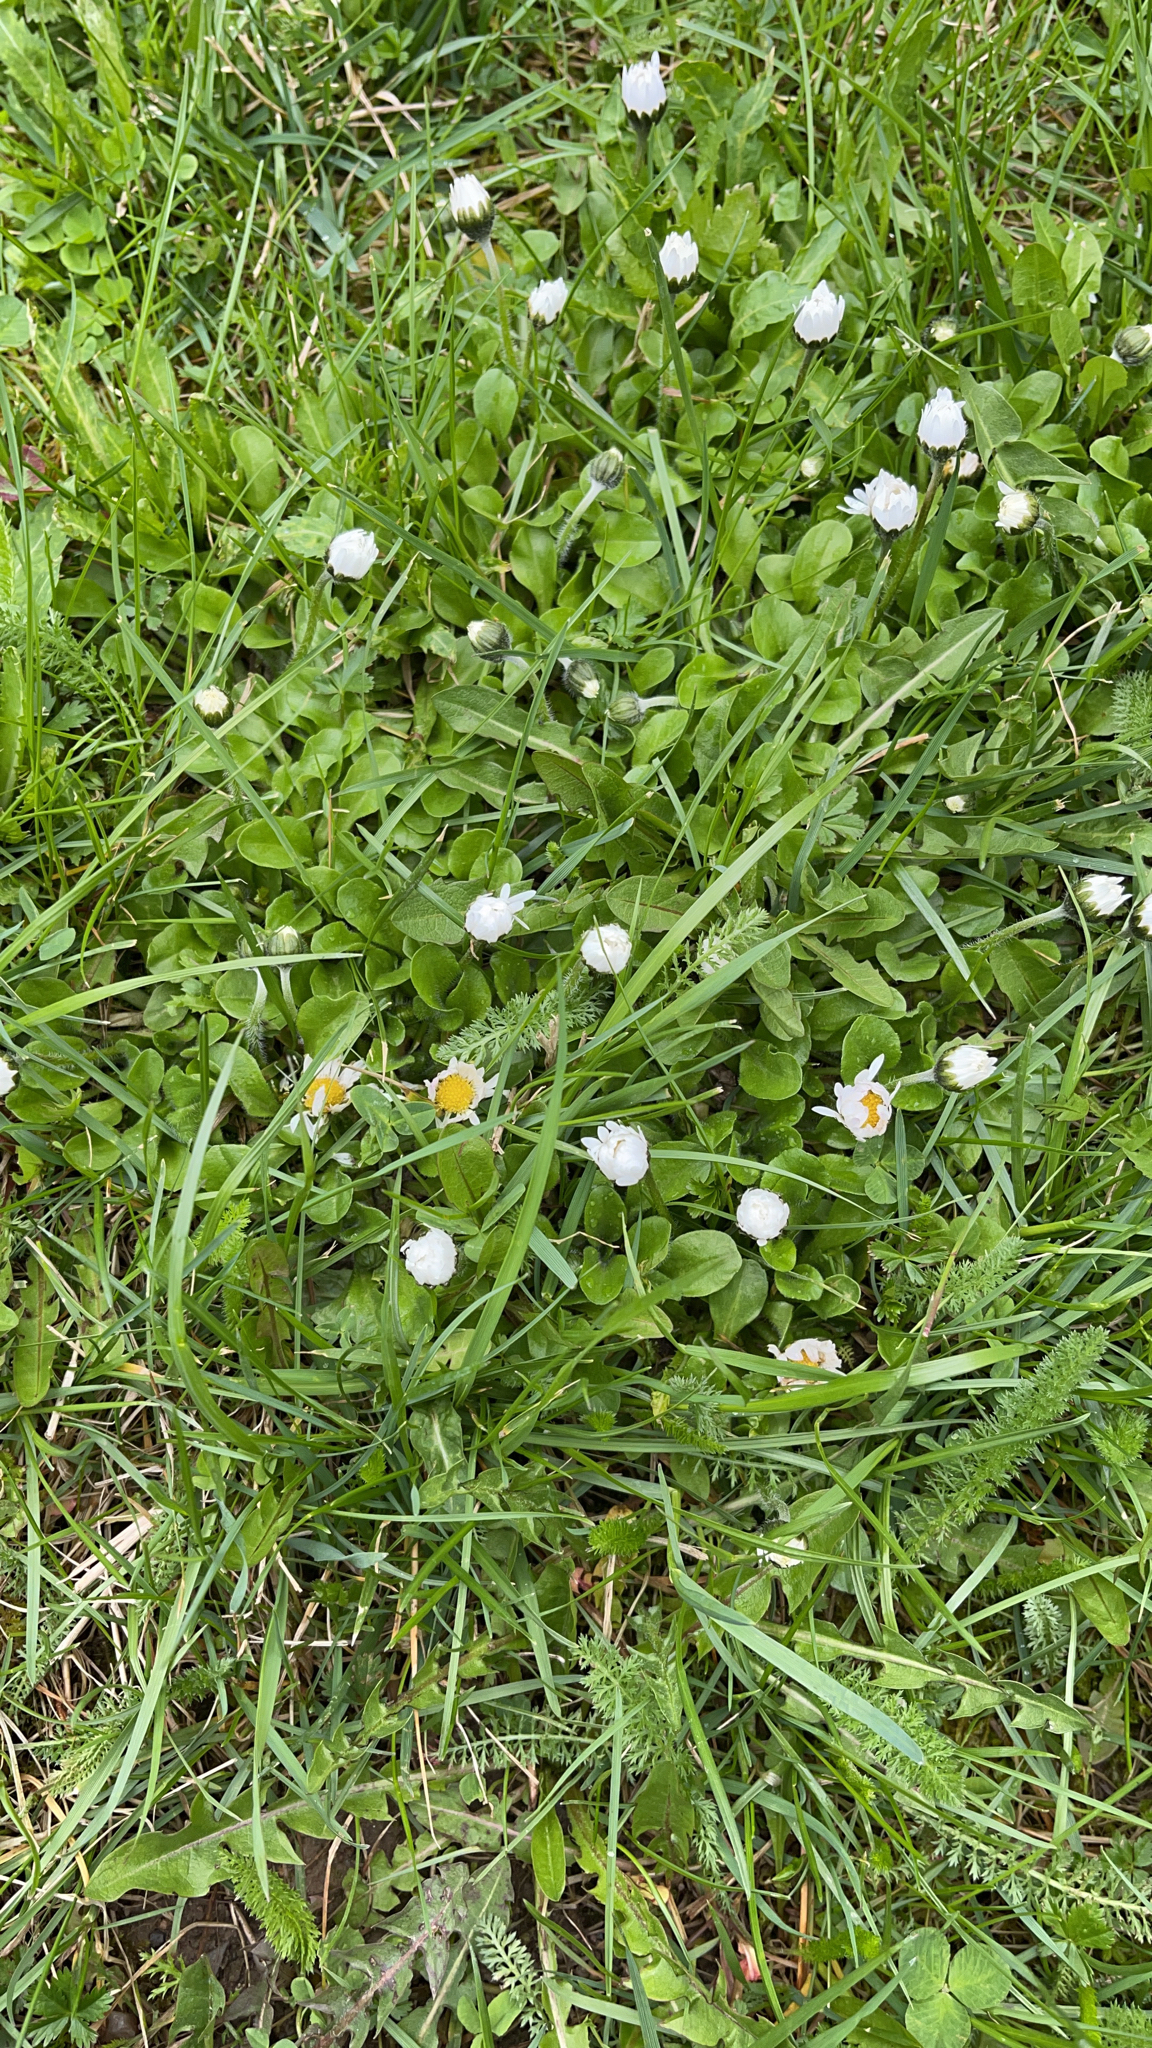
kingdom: Plantae
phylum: Tracheophyta
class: Magnoliopsida
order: Asterales
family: Asteraceae
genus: Bellis
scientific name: Bellis perennis
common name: Lawndaisy
